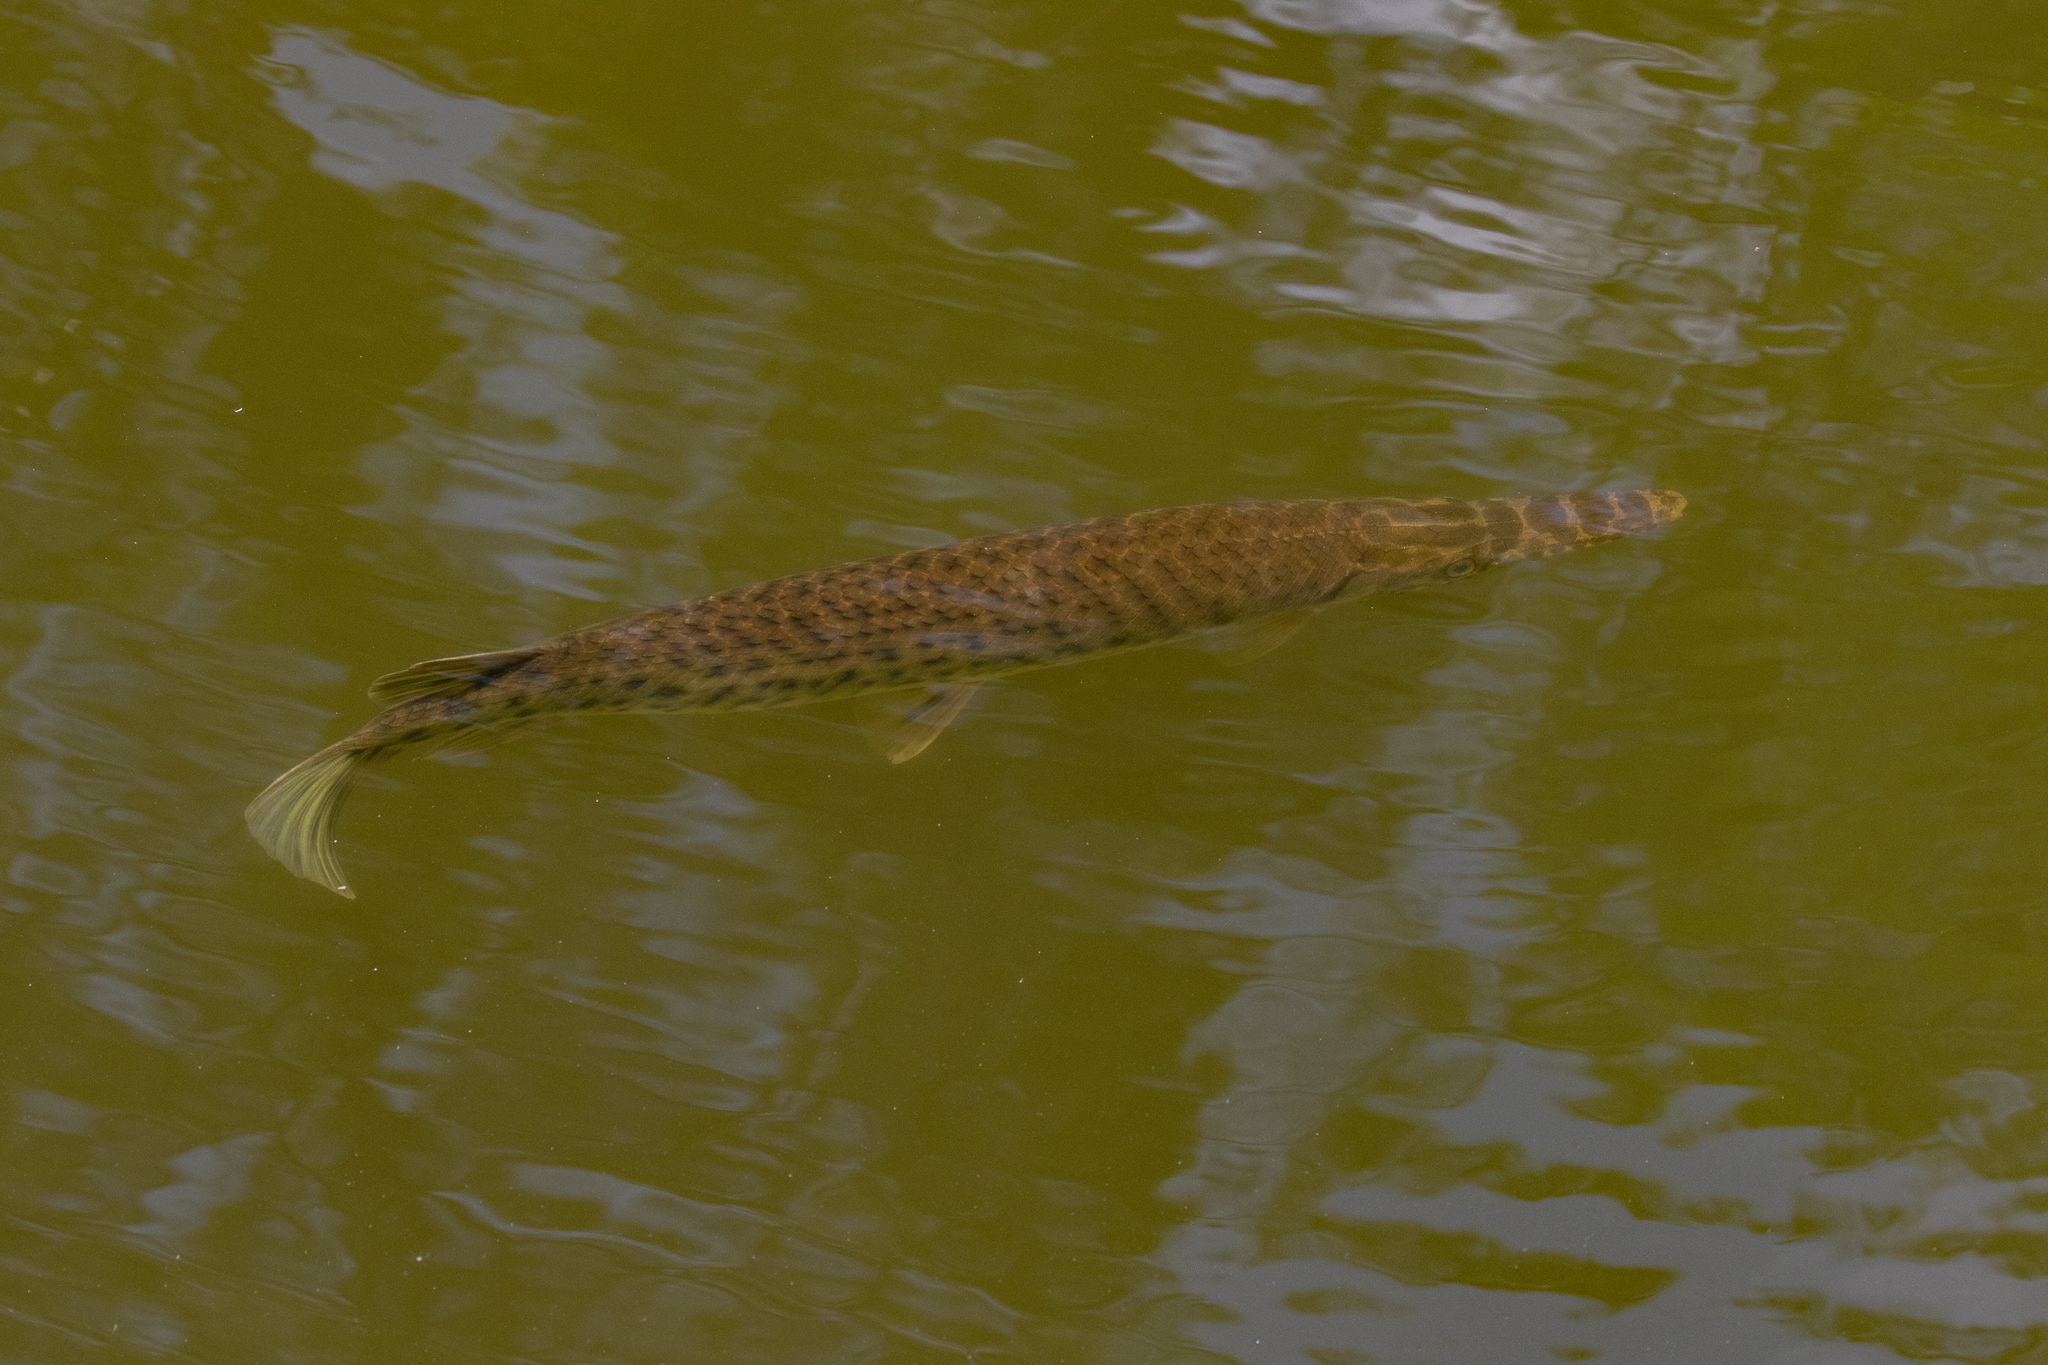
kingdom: Animalia
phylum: Chordata
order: Lepisosteiformes
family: Lepisosteidae
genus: Lepisosteus
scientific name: Lepisosteus platyrhincus
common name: Florida gar
